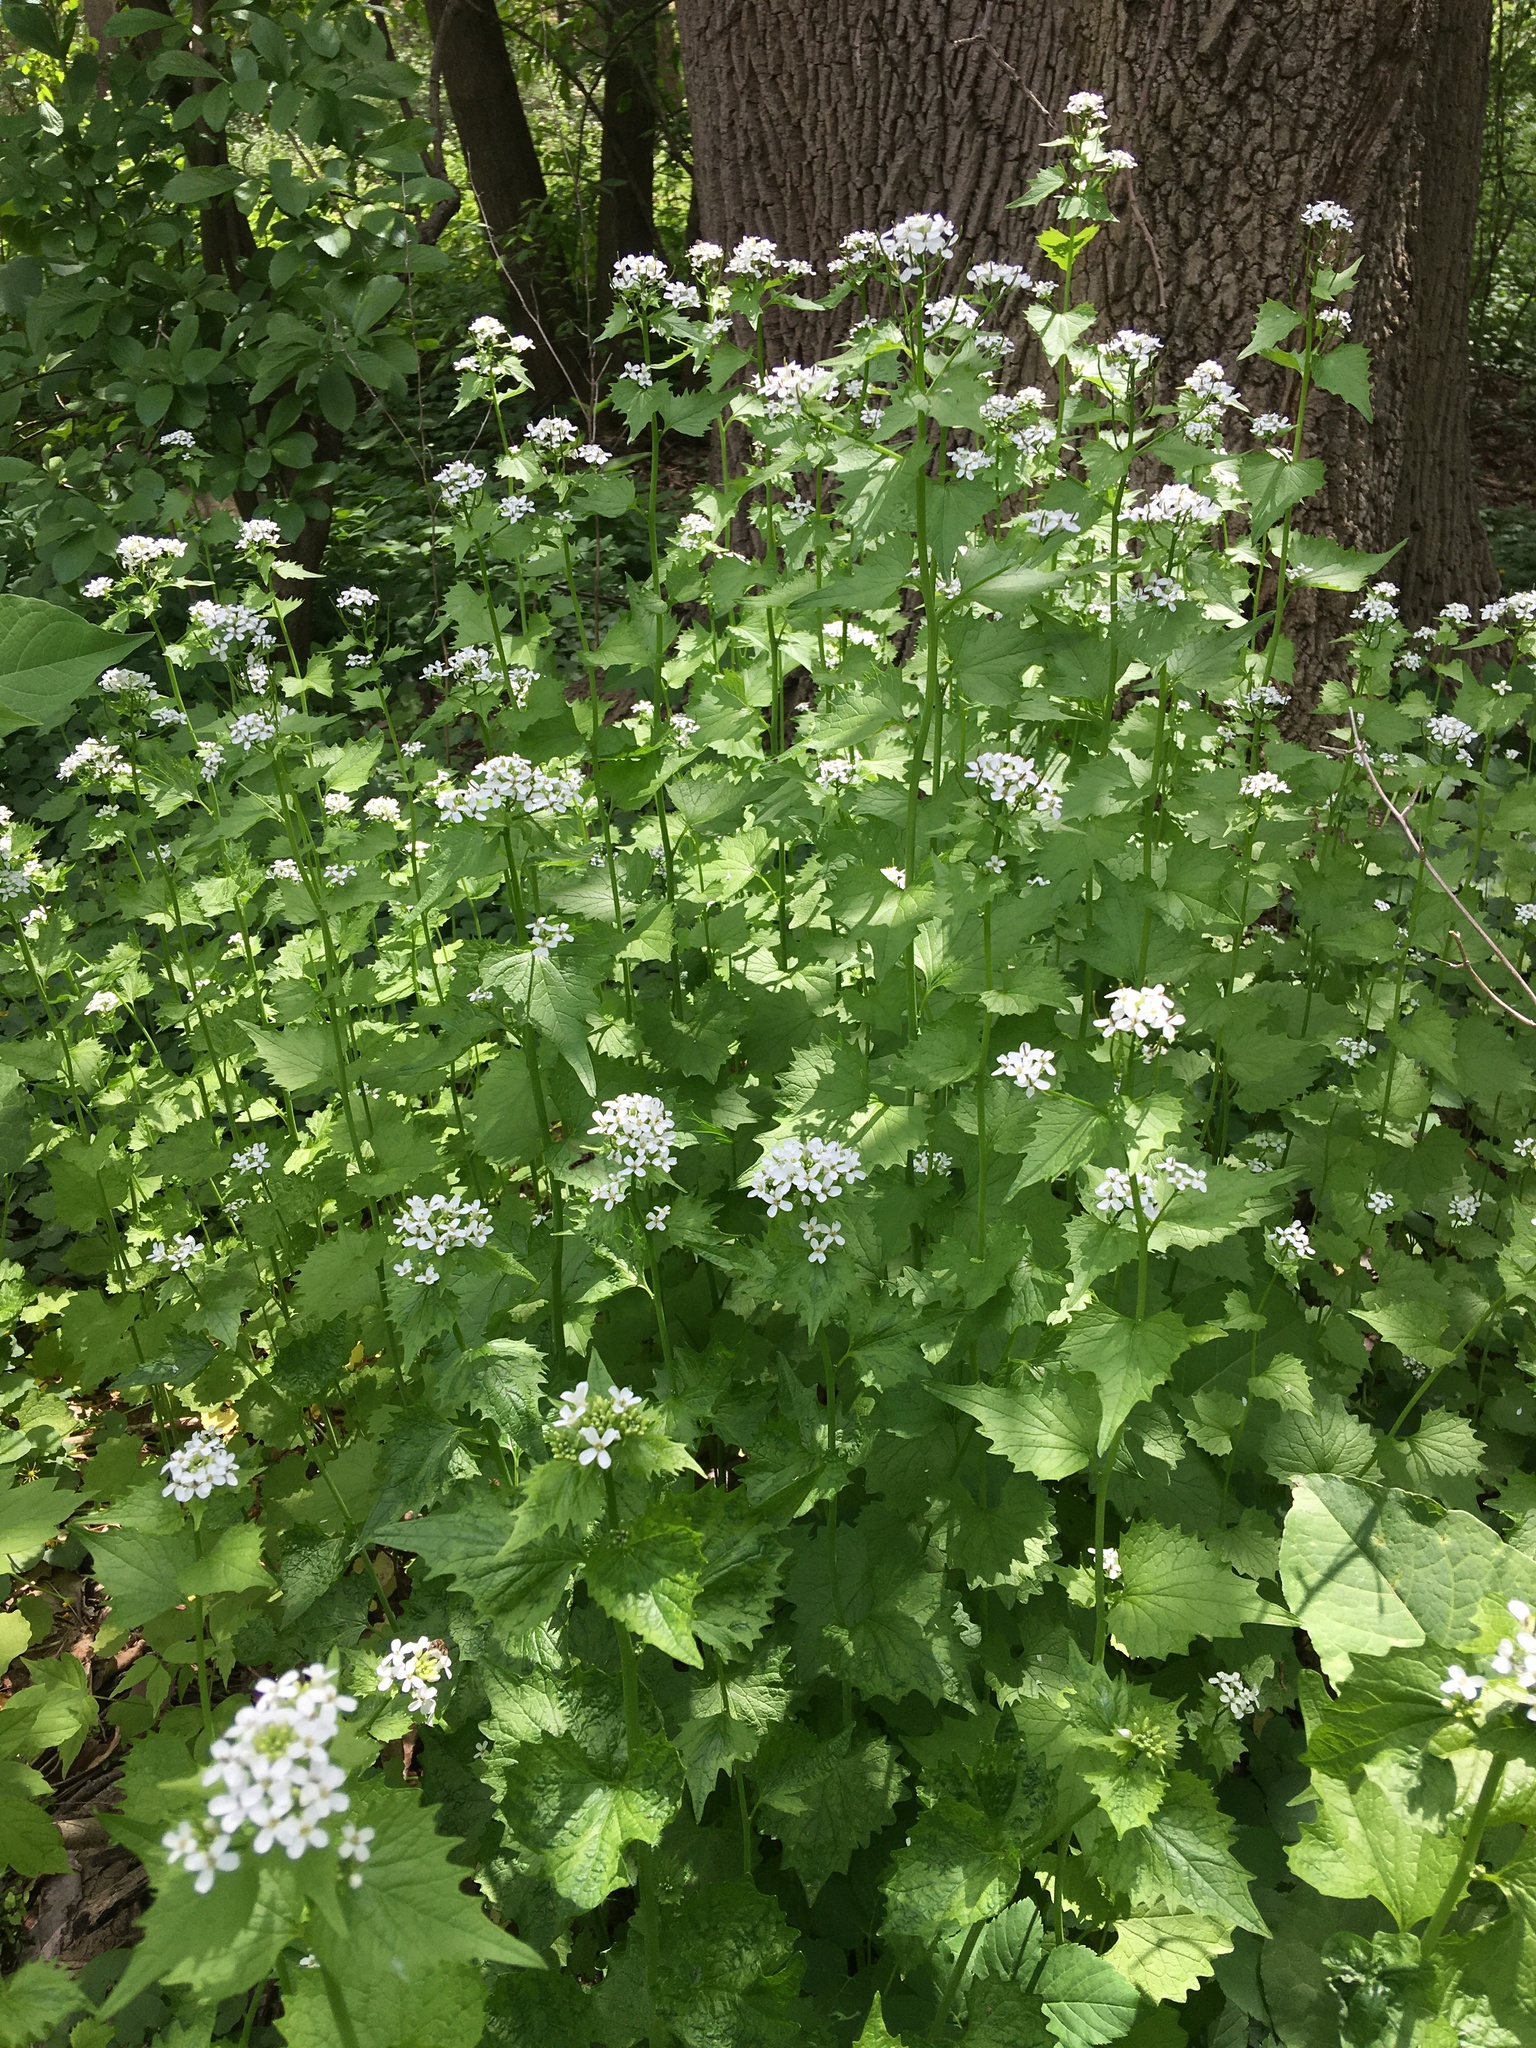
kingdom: Plantae
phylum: Tracheophyta
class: Magnoliopsida
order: Brassicales
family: Brassicaceae
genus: Alliaria
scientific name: Alliaria petiolata
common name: Garlic mustard
